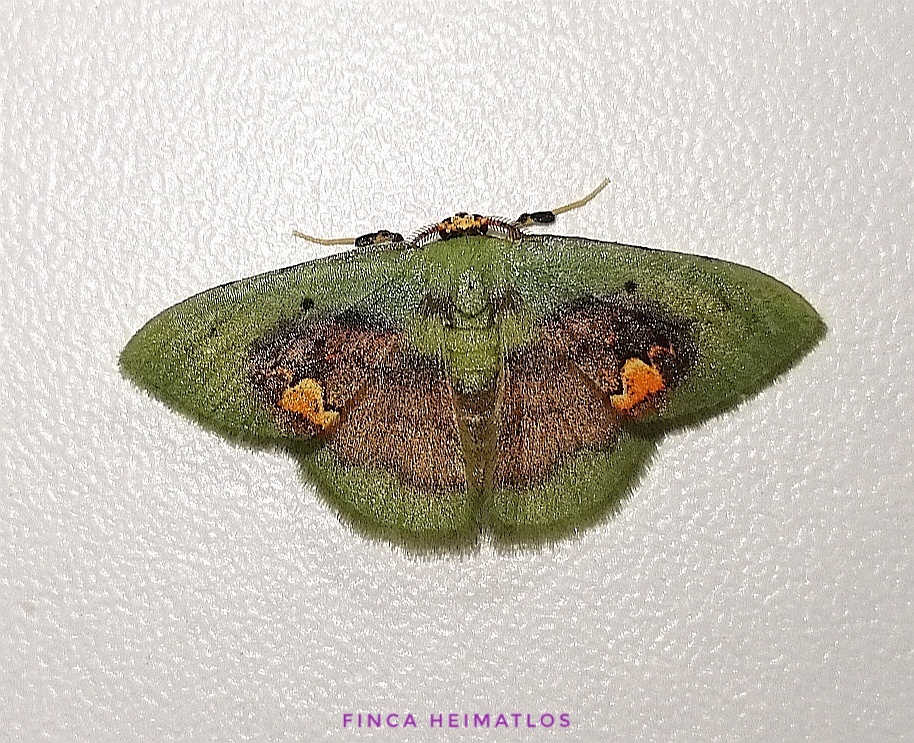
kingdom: Animalia
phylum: Arthropoda
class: Insecta
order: Lepidoptera
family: Geometridae
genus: Pyrochlora
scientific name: Pyrochlora rhanis
